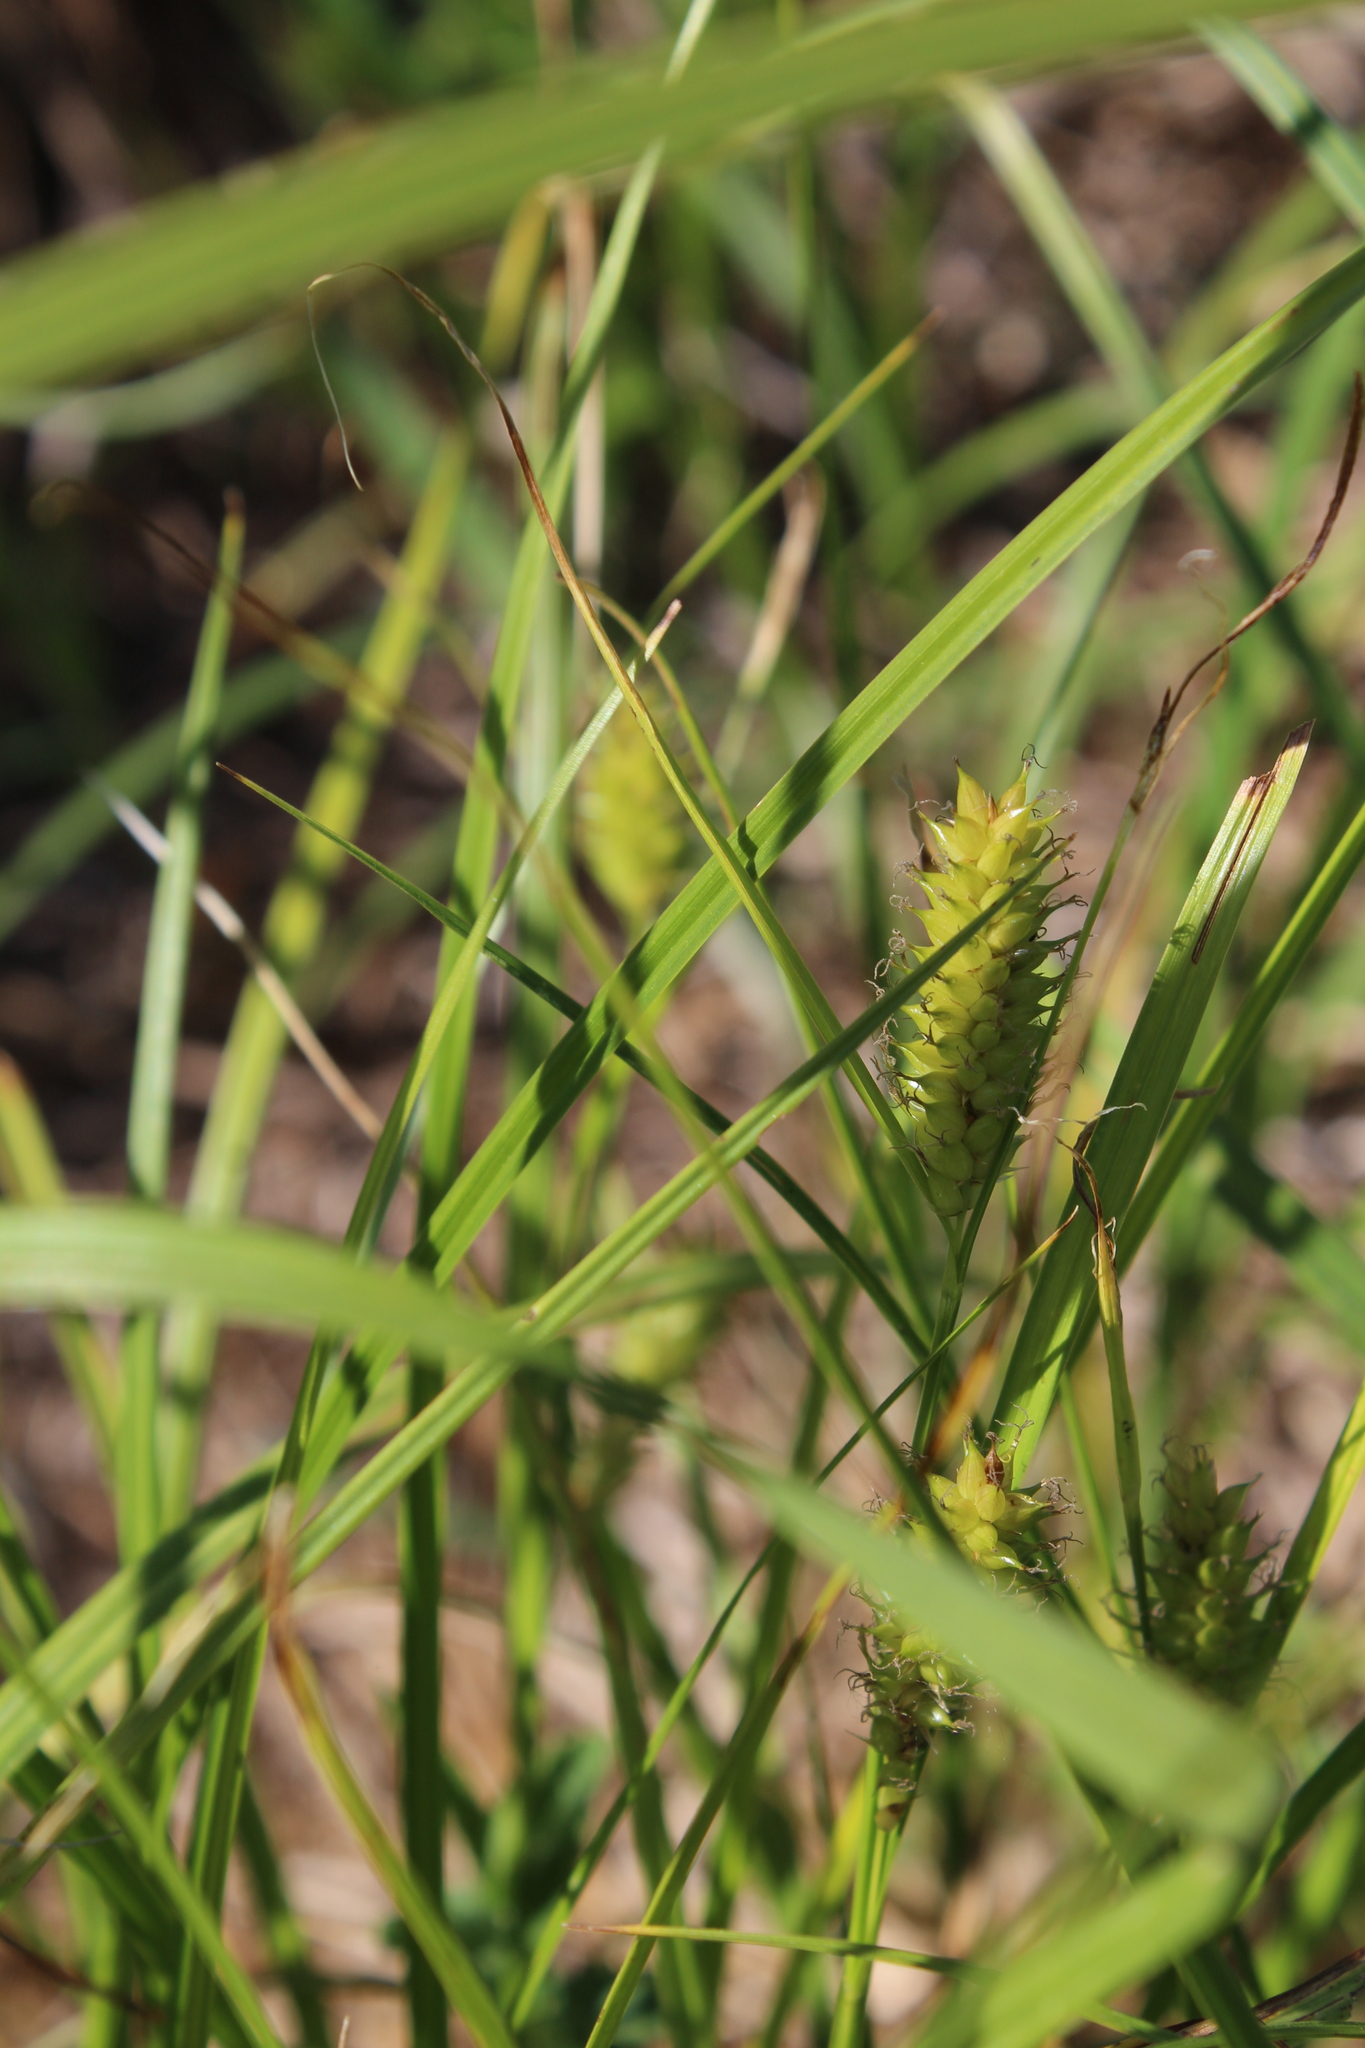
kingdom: Plantae
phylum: Tracheophyta
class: Liliopsida
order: Poales
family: Cyperaceae
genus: Carex
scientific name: Carex vesicaria
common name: Bladder-sedge
